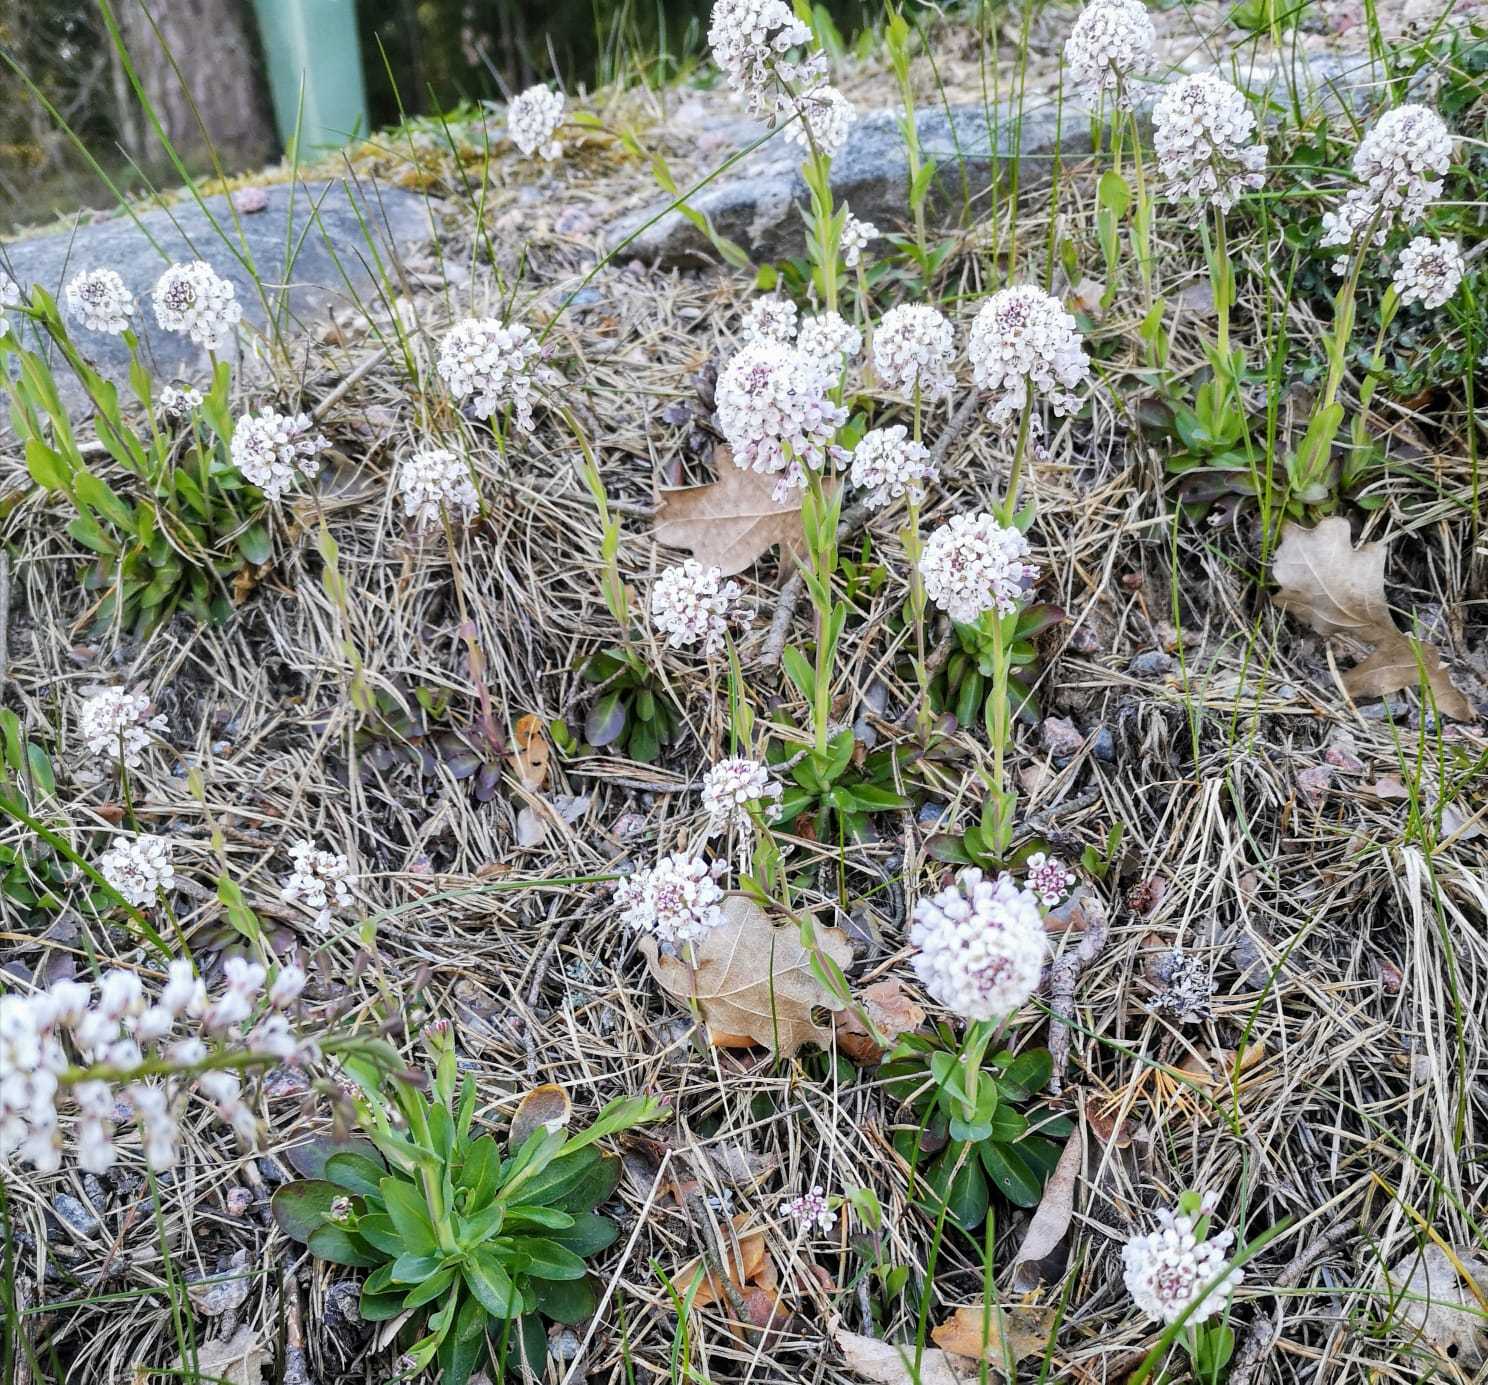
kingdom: Plantae
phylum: Tracheophyta
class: Magnoliopsida
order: Brassicales
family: Brassicaceae
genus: Noccaea
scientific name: Noccaea caerulescens
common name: Alpine pennycress
